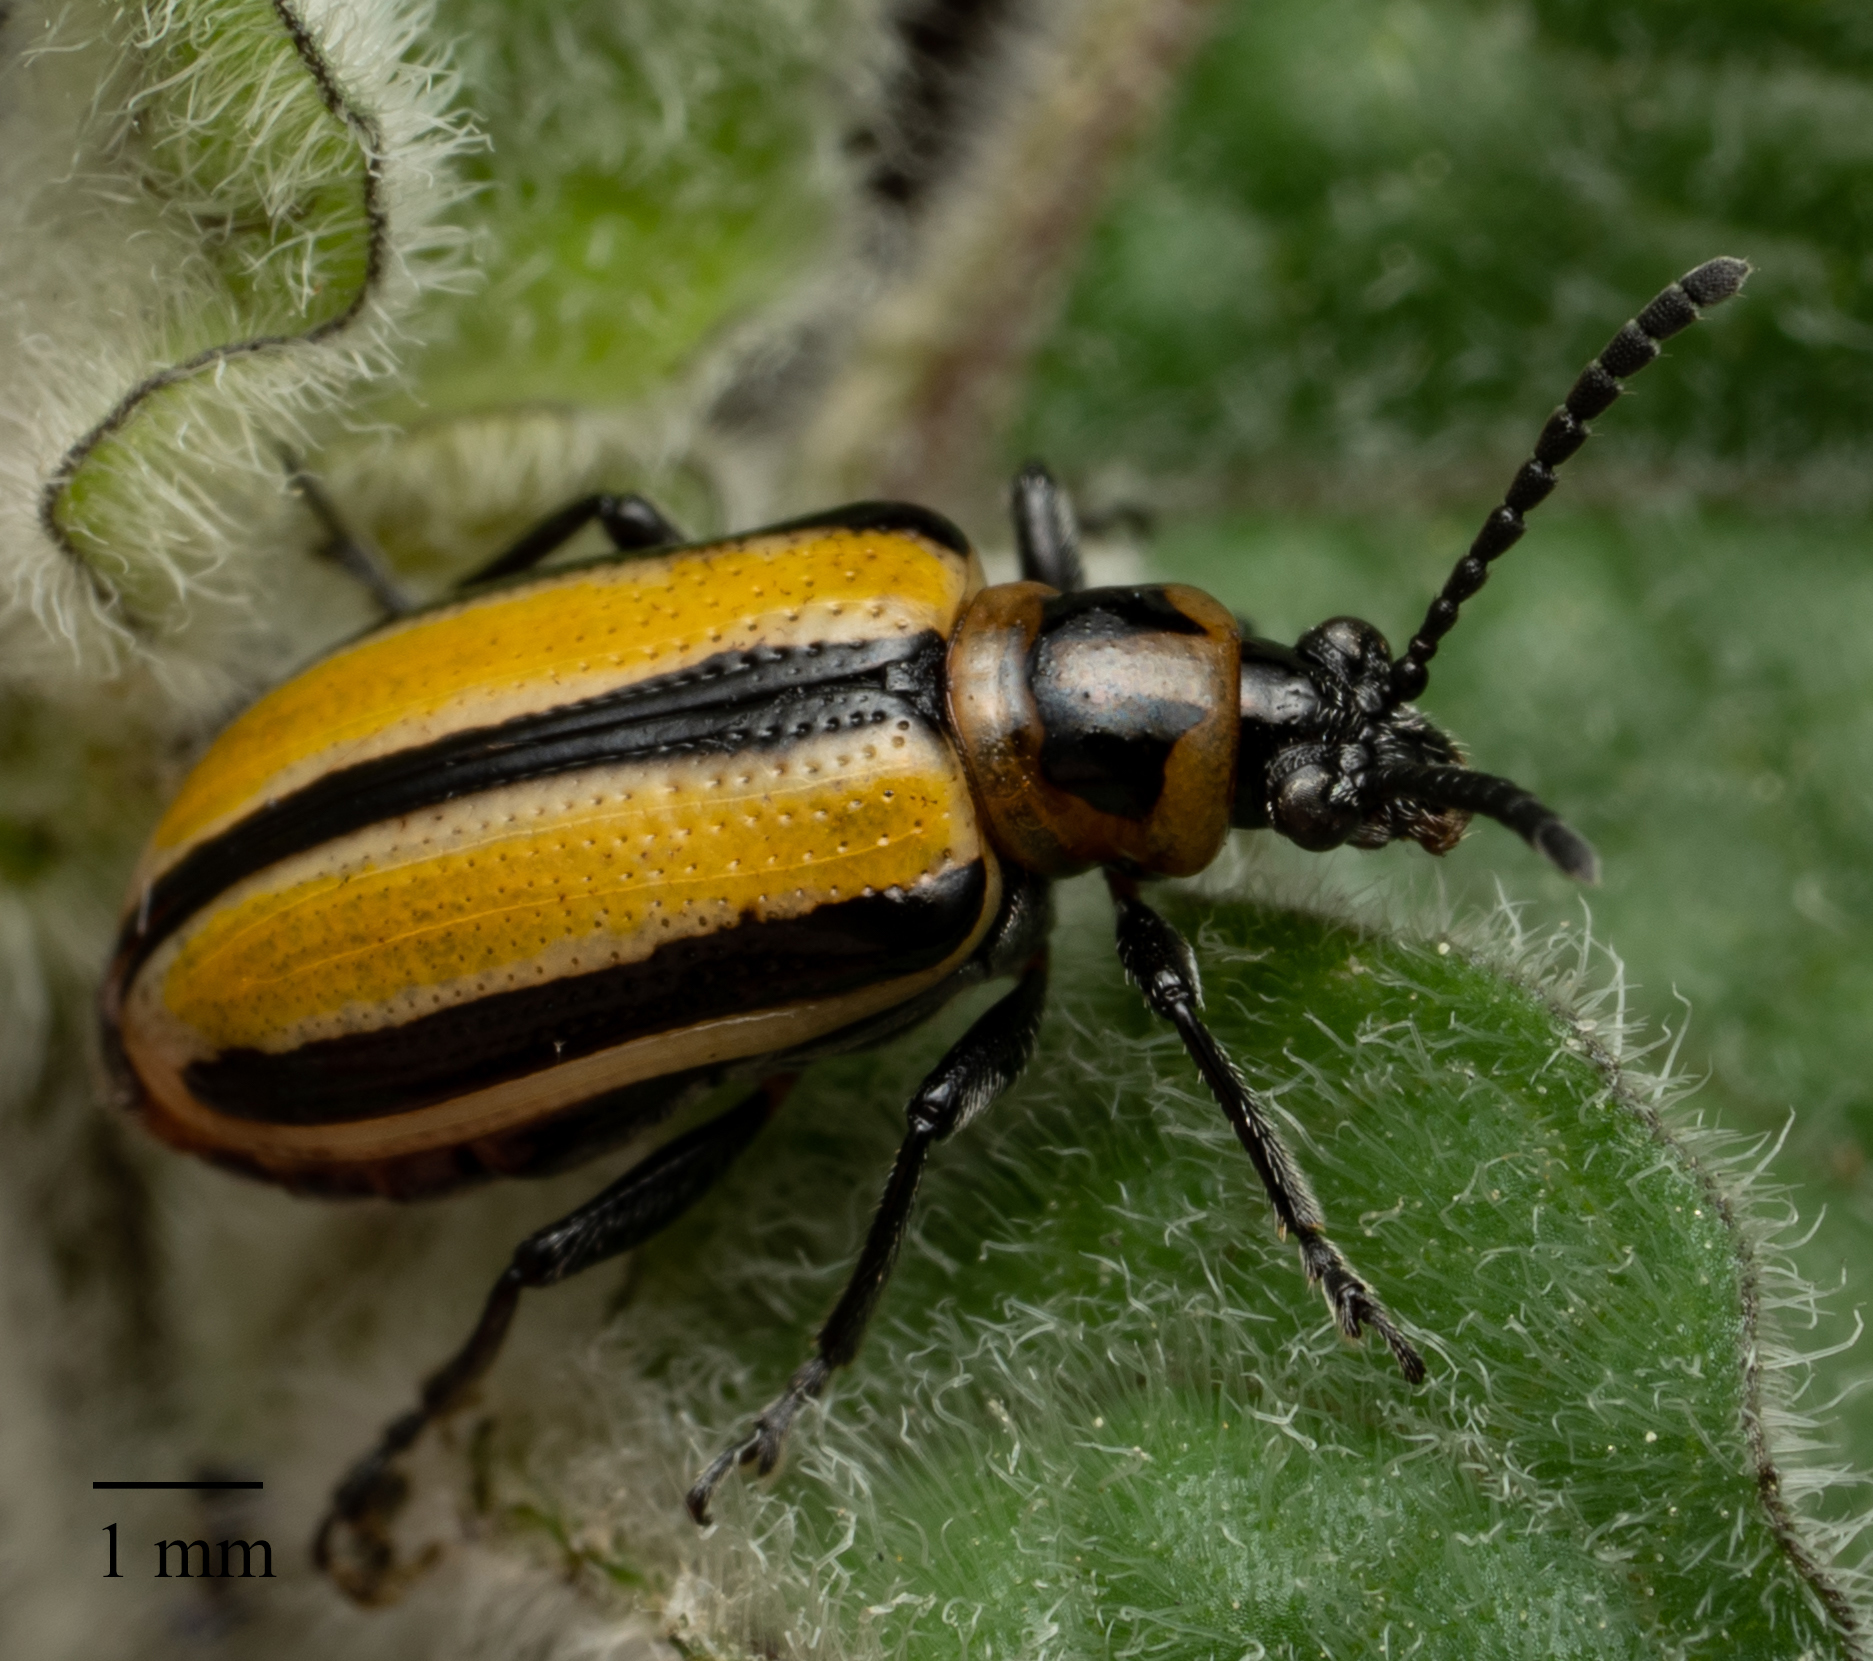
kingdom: Animalia
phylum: Arthropoda
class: Insecta
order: Coleoptera
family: Chrysomelidae
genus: Lema
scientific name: Lema daturaphila
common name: Leaf beetle
